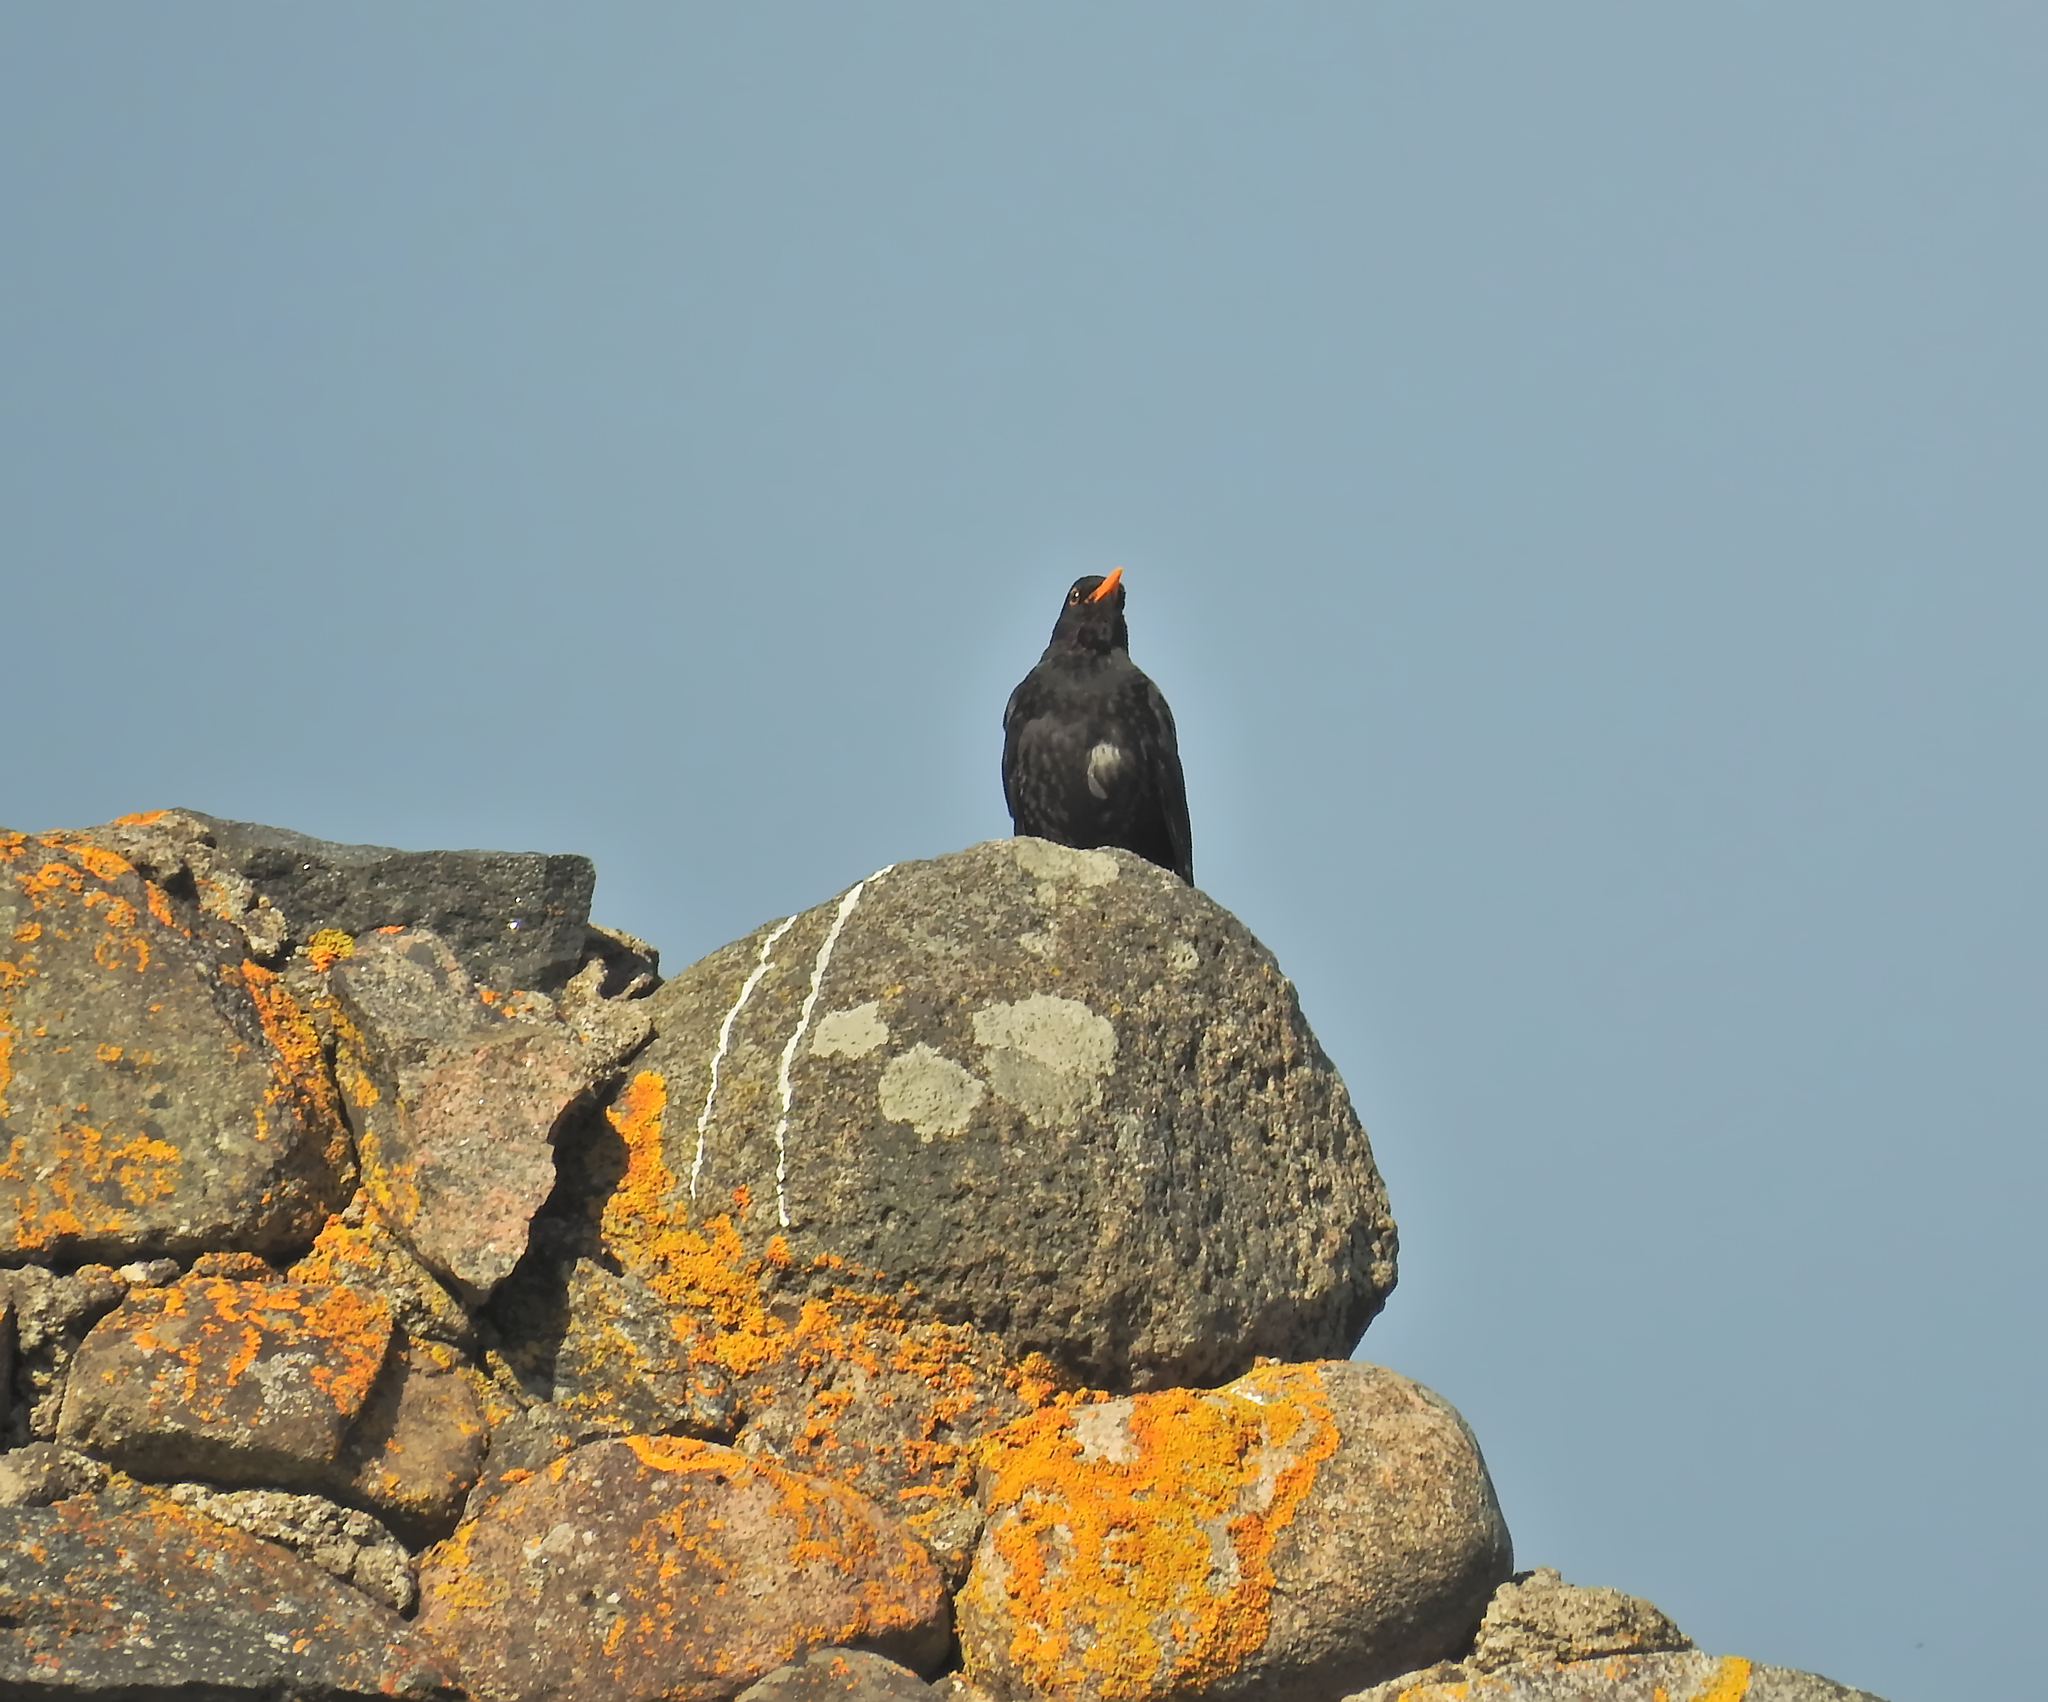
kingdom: Animalia
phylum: Chordata
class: Aves
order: Passeriformes
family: Turdidae
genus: Turdus
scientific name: Turdus merula
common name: Common blackbird
